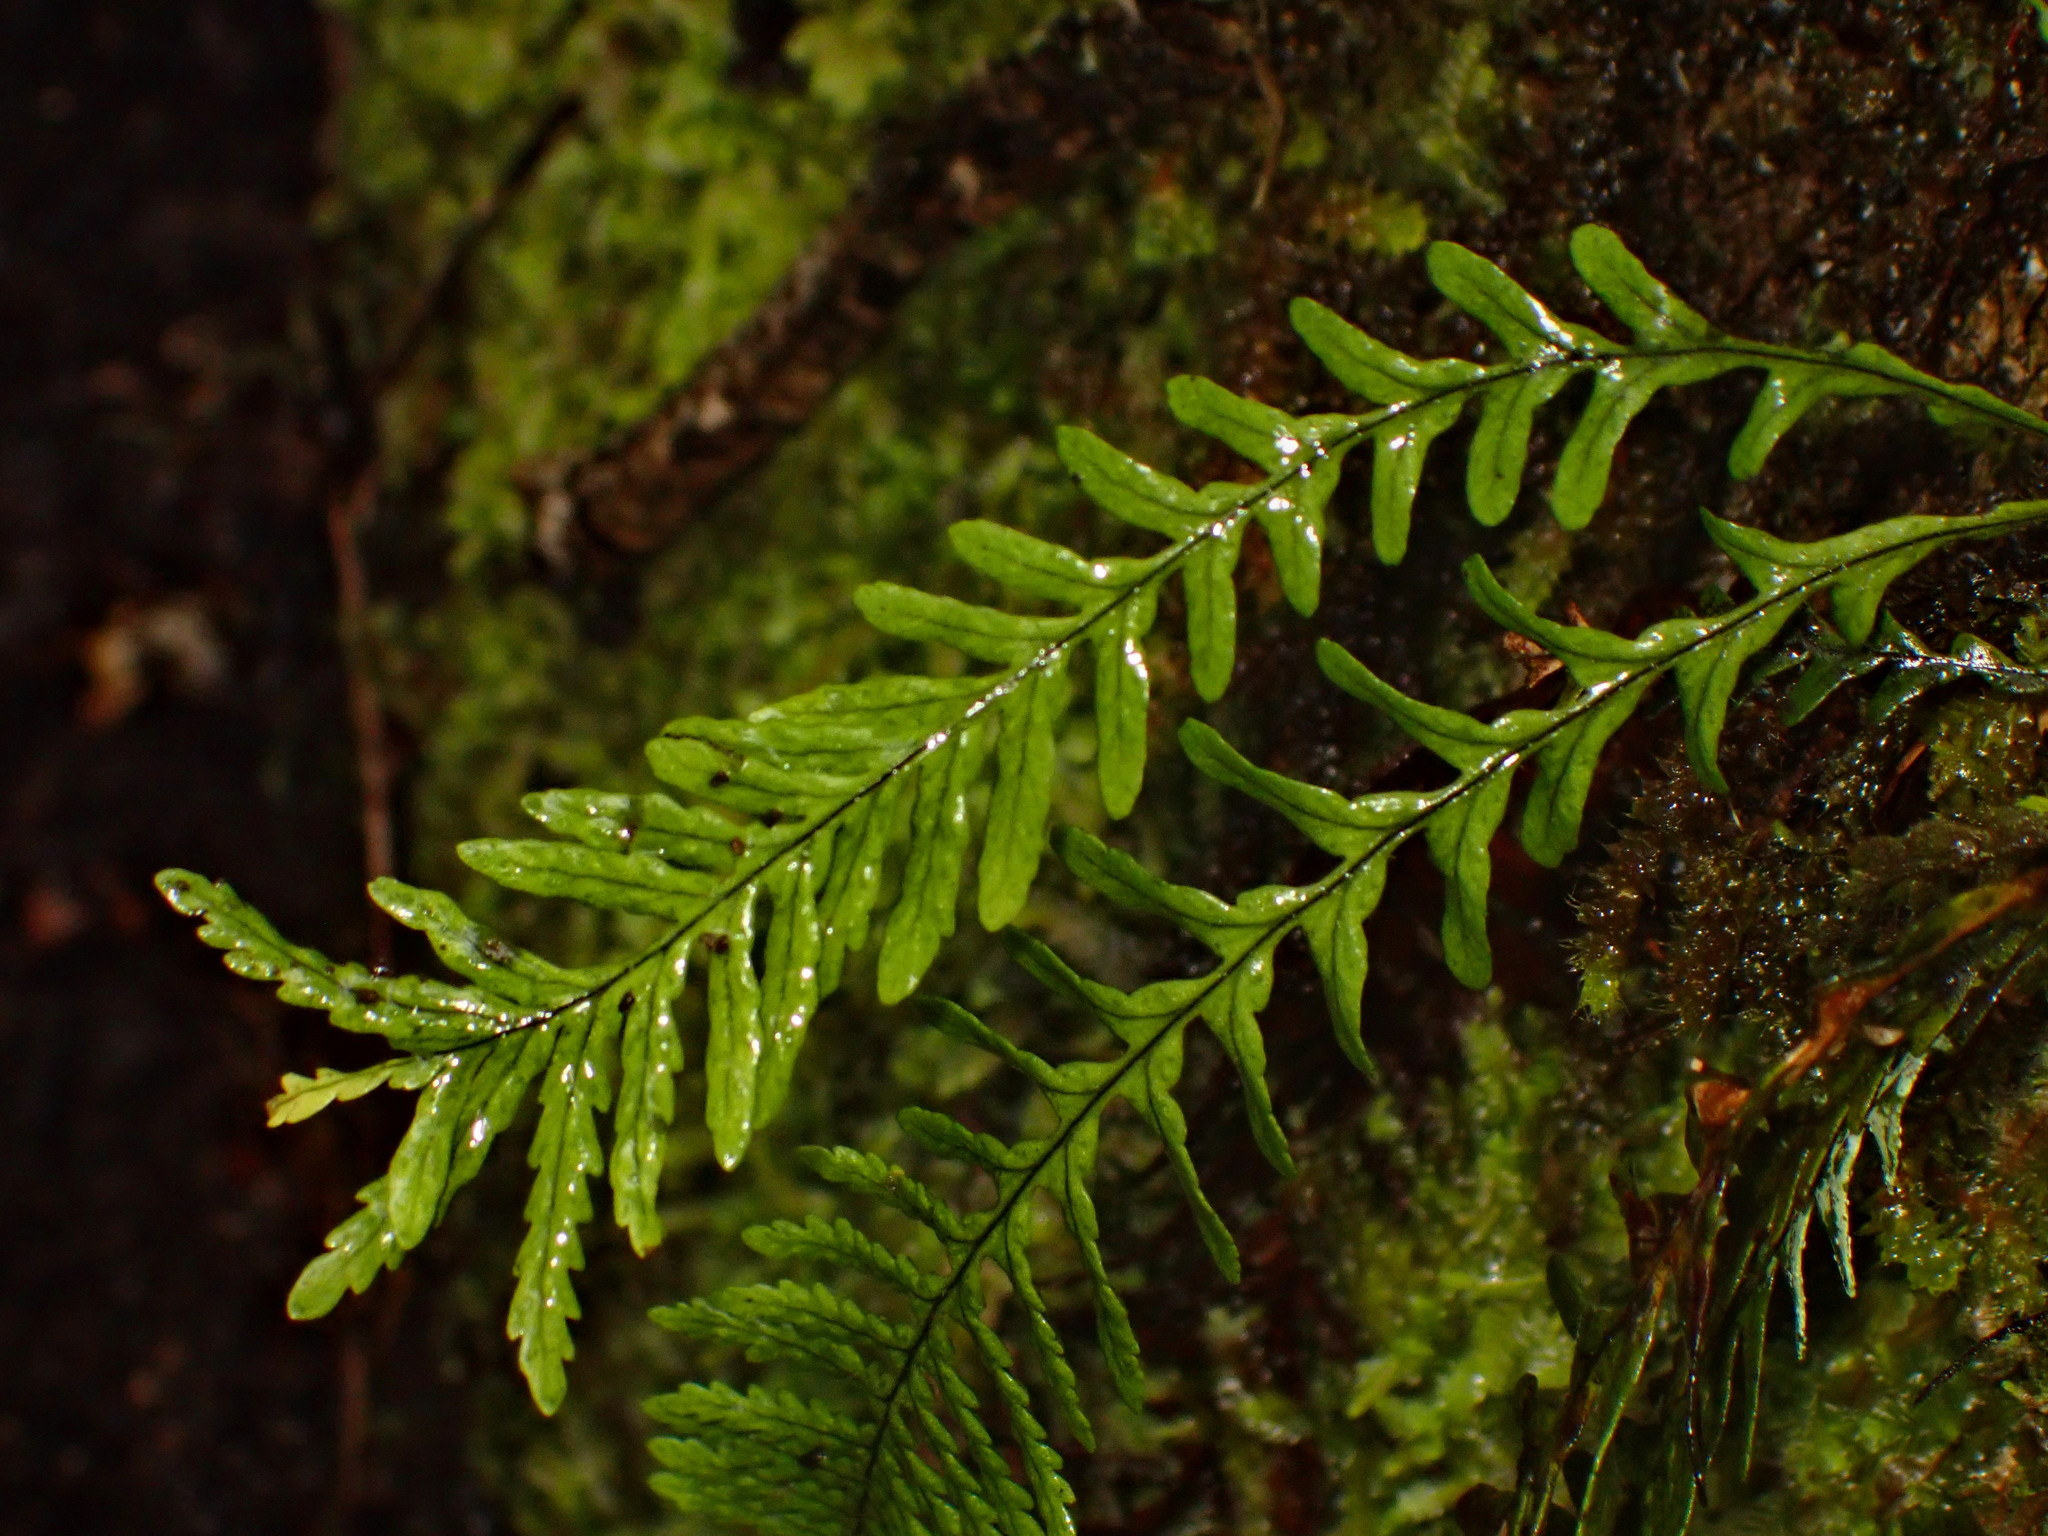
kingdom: Plantae
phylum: Tracheophyta
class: Polypodiopsida
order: Polypodiales
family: Polypodiaceae
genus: Notogrammitis
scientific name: Notogrammitis heterophylla
